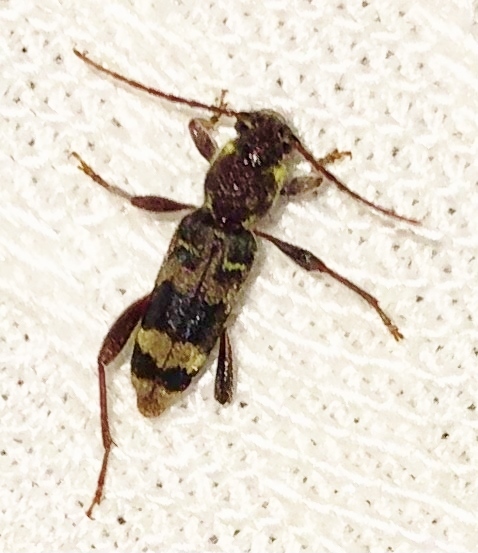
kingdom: Animalia
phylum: Arthropoda
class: Insecta
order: Coleoptera
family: Cerambycidae
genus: Xylotrechus
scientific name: Xylotrechus colonus
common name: Long-horned beetle
